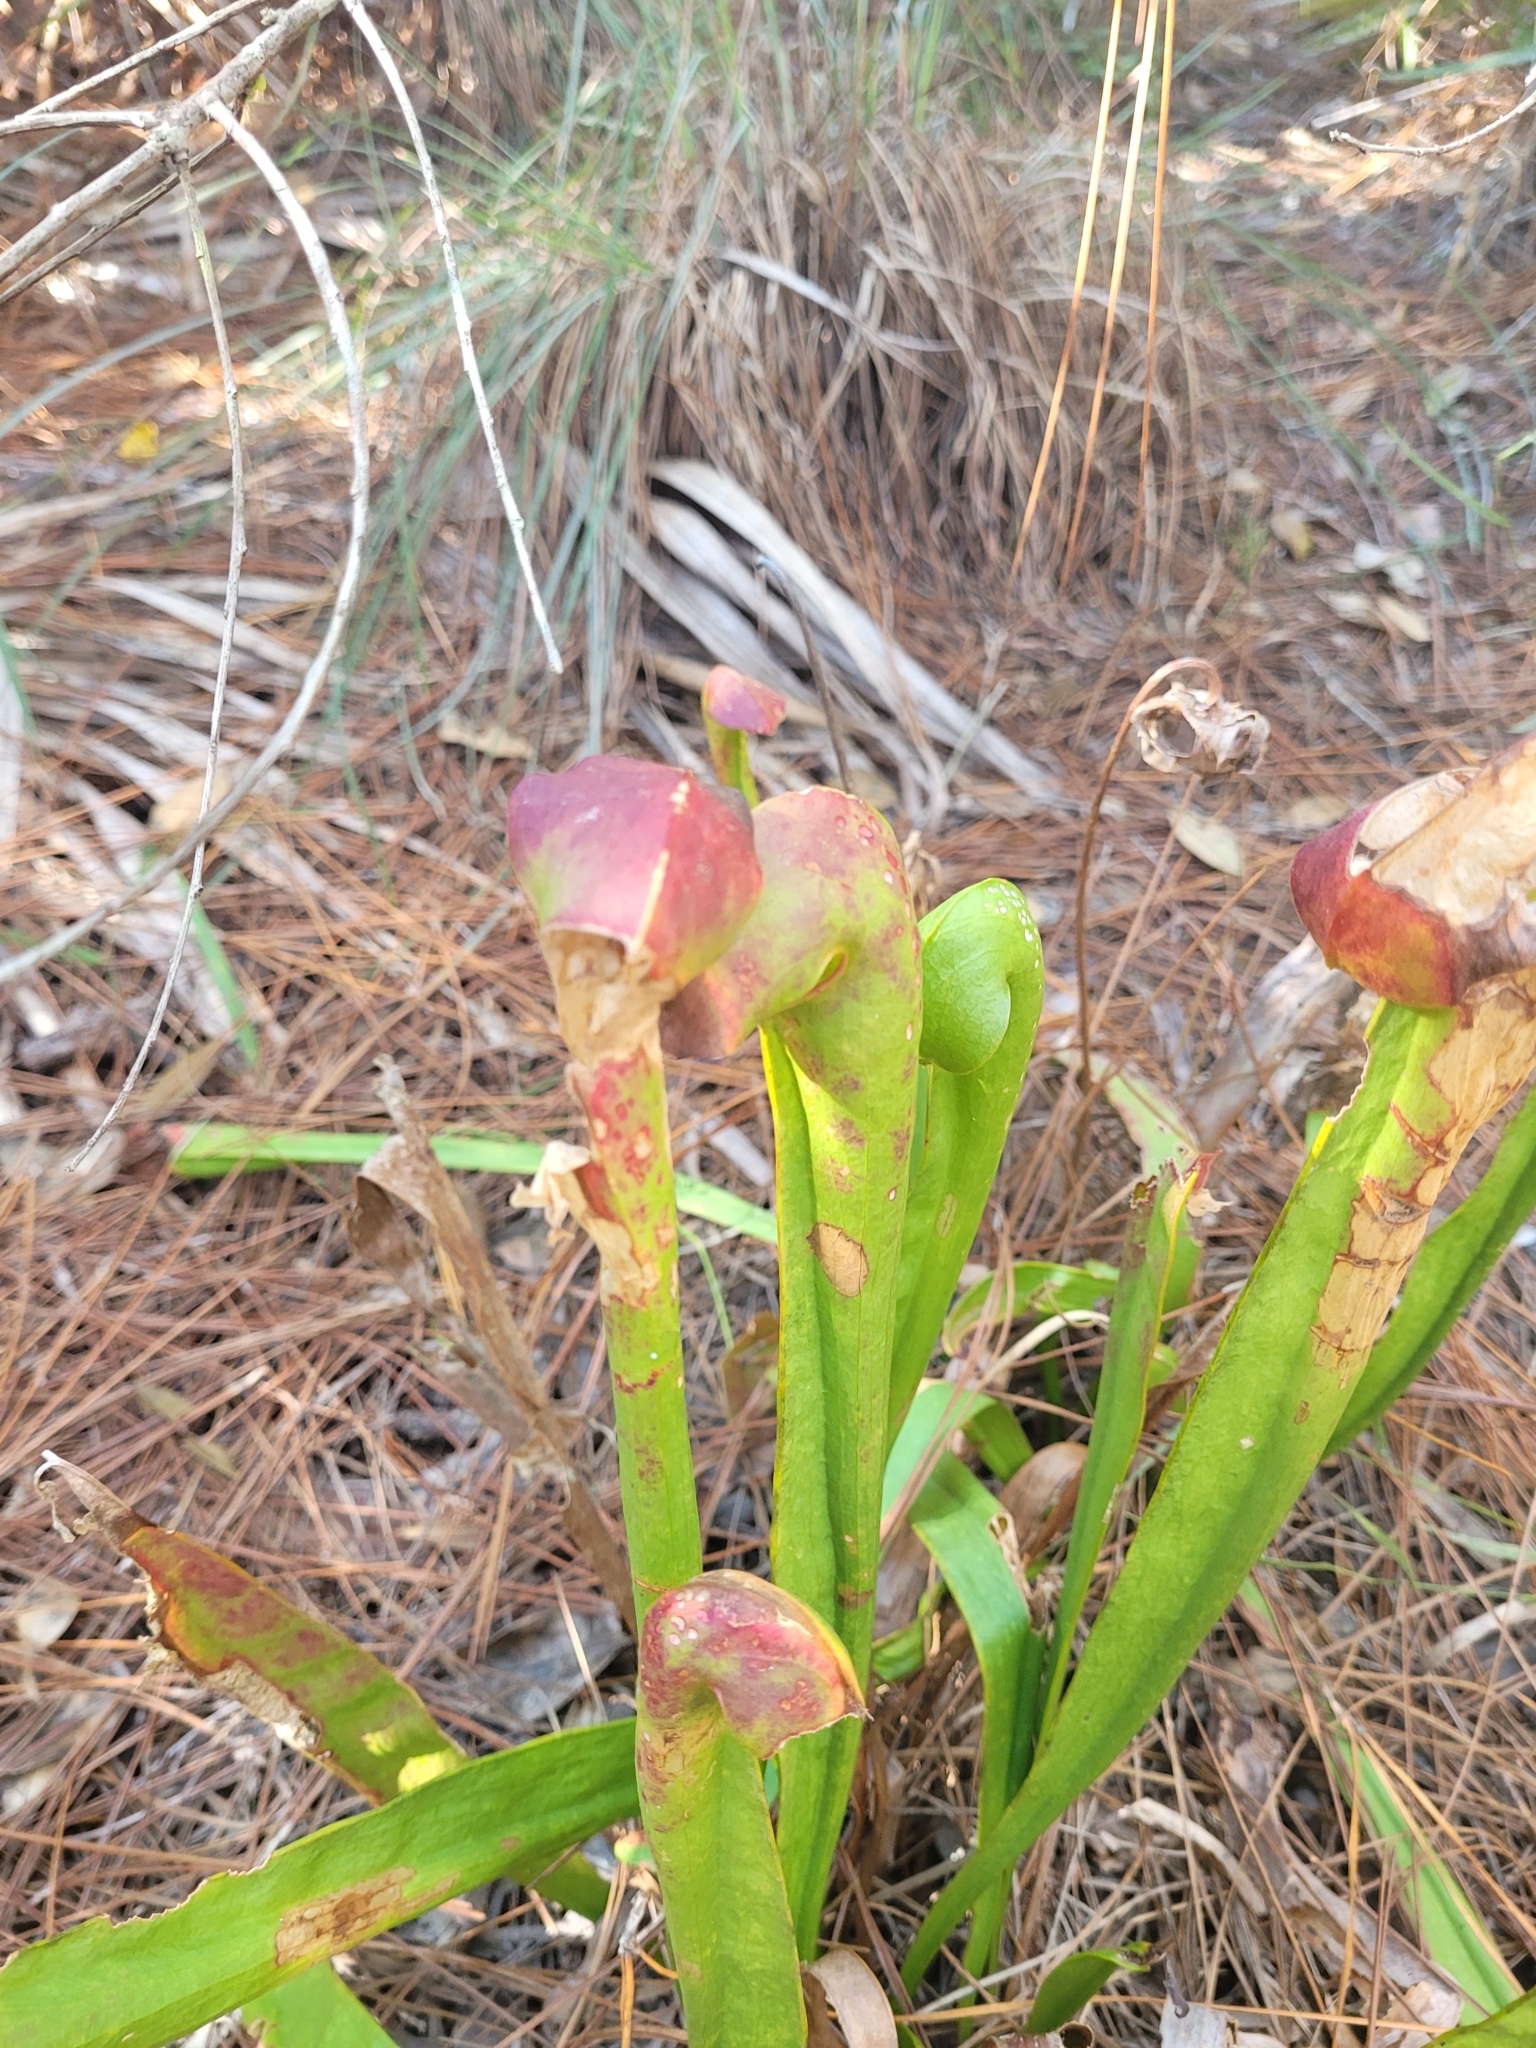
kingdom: Plantae
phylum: Tracheophyta
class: Magnoliopsida
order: Ericales
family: Sarraceniaceae
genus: Sarracenia
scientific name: Sarracenia minor
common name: Rainhat-trumpet
